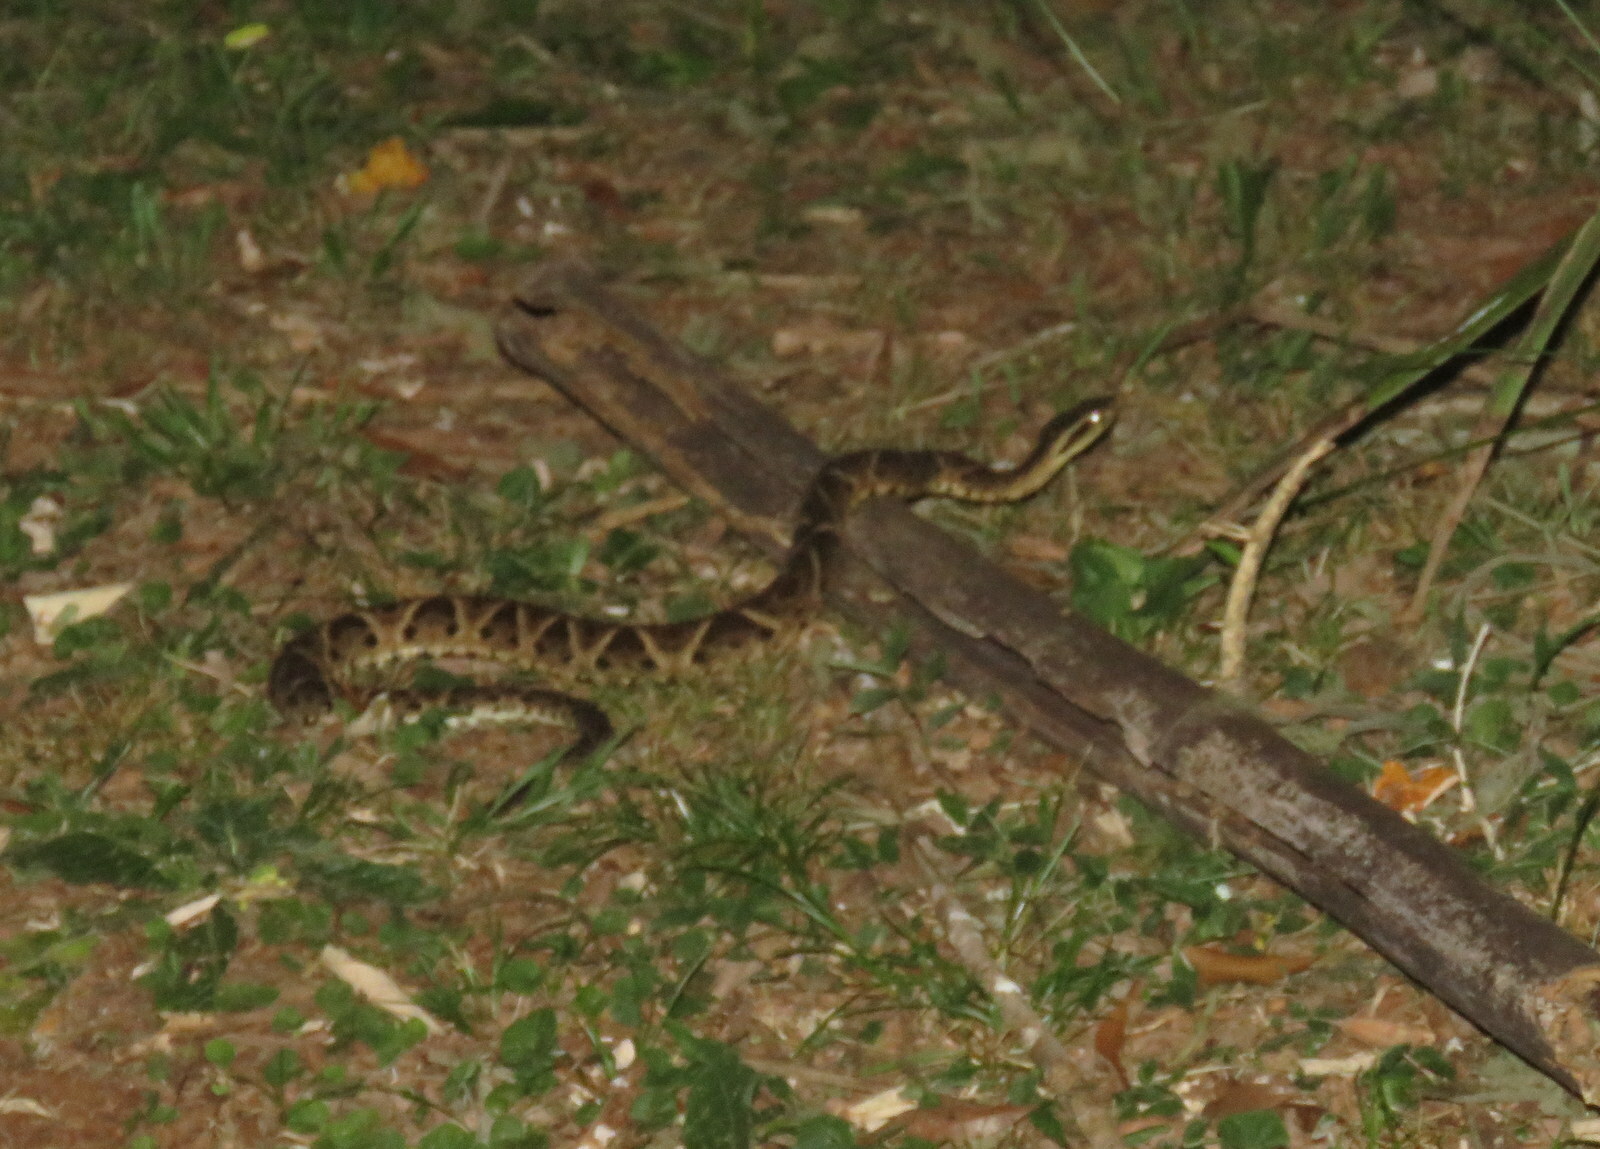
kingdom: Animalia
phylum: Chordata
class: Squamata
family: Viperidae
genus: Bothrops
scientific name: Bothrops jararacussu
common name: Jararacussu
